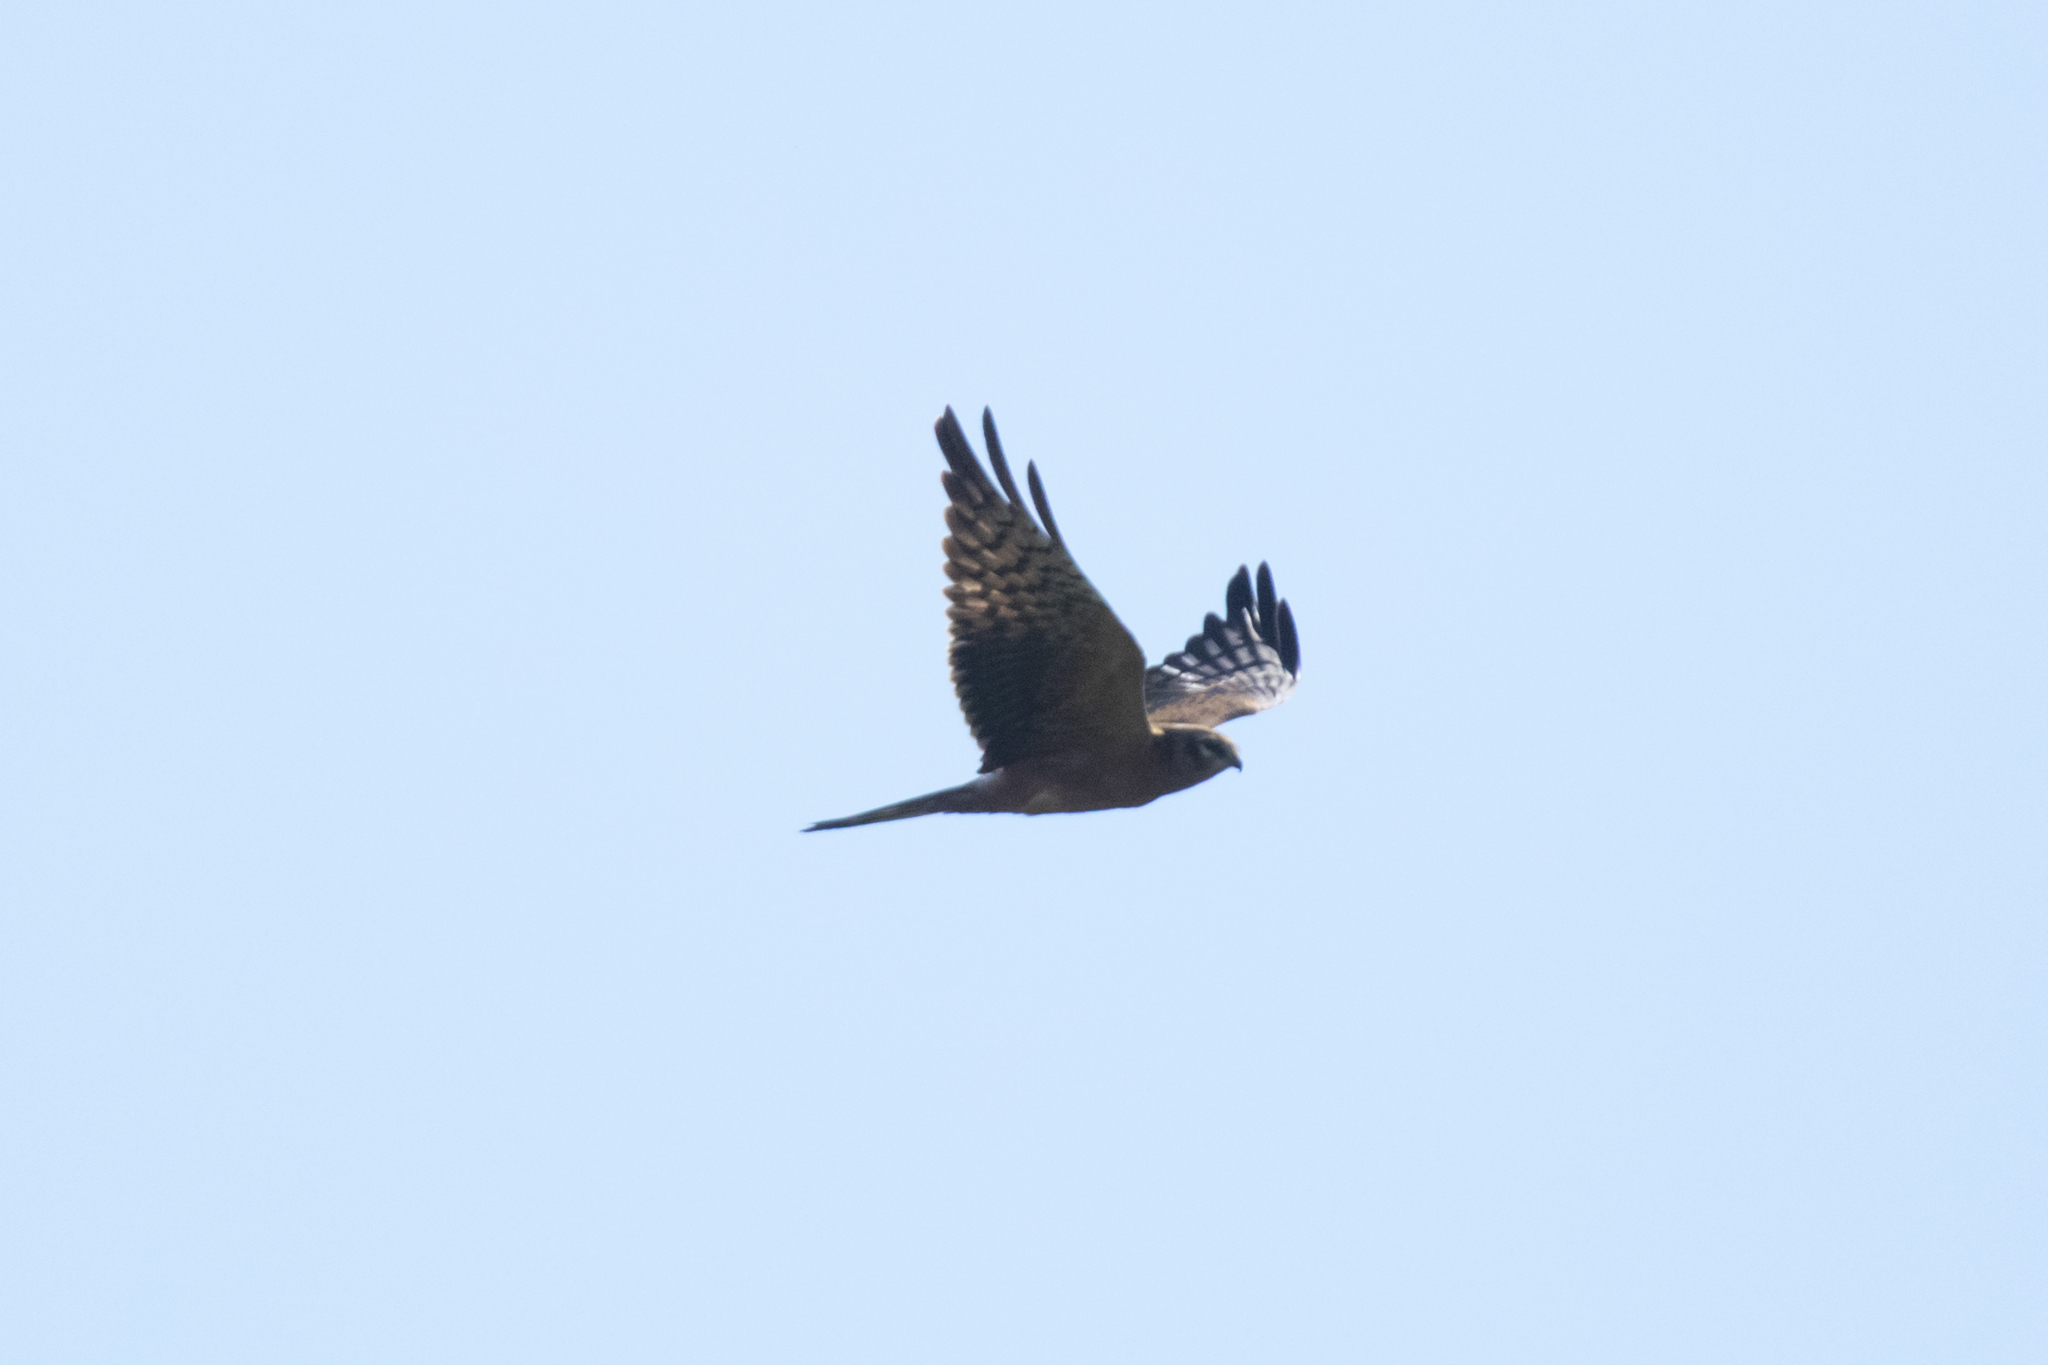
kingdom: Animalia
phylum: Chordata
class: Aves
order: Accipitriformes
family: Accipitridae
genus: Circus
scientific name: Circus pygargus
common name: Montagu's harrier
